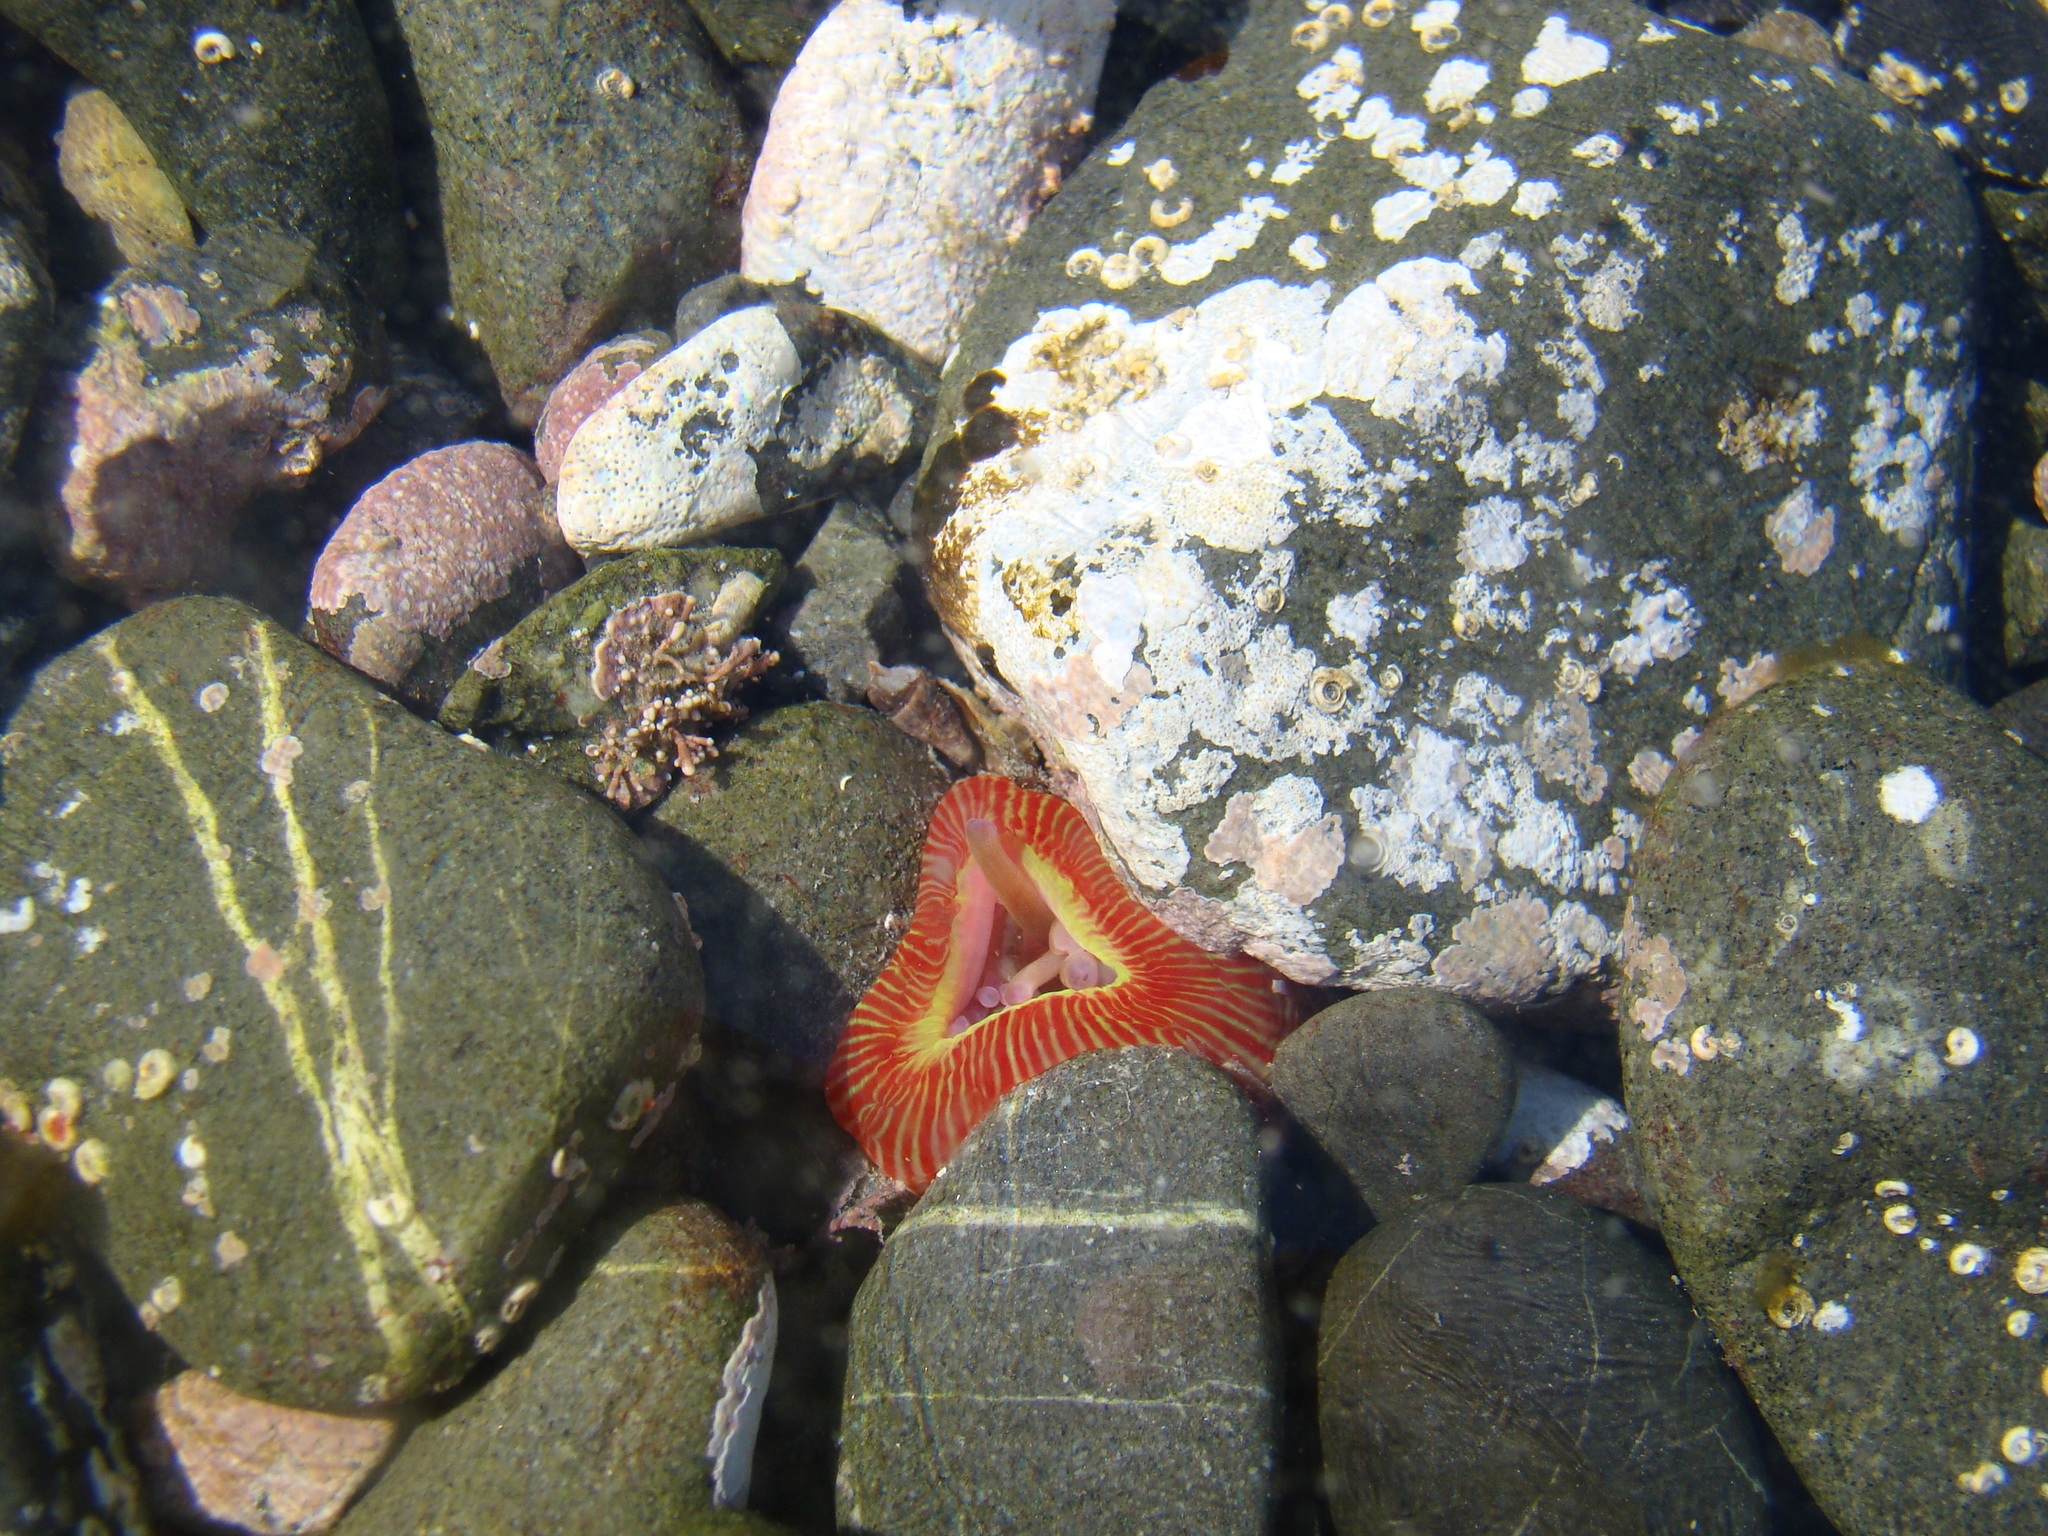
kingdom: Animalia
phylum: Cnidaria
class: Anthozoa
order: Actiniaria
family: Actiniidae
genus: Epiactis
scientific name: Epiactis thompsoni
